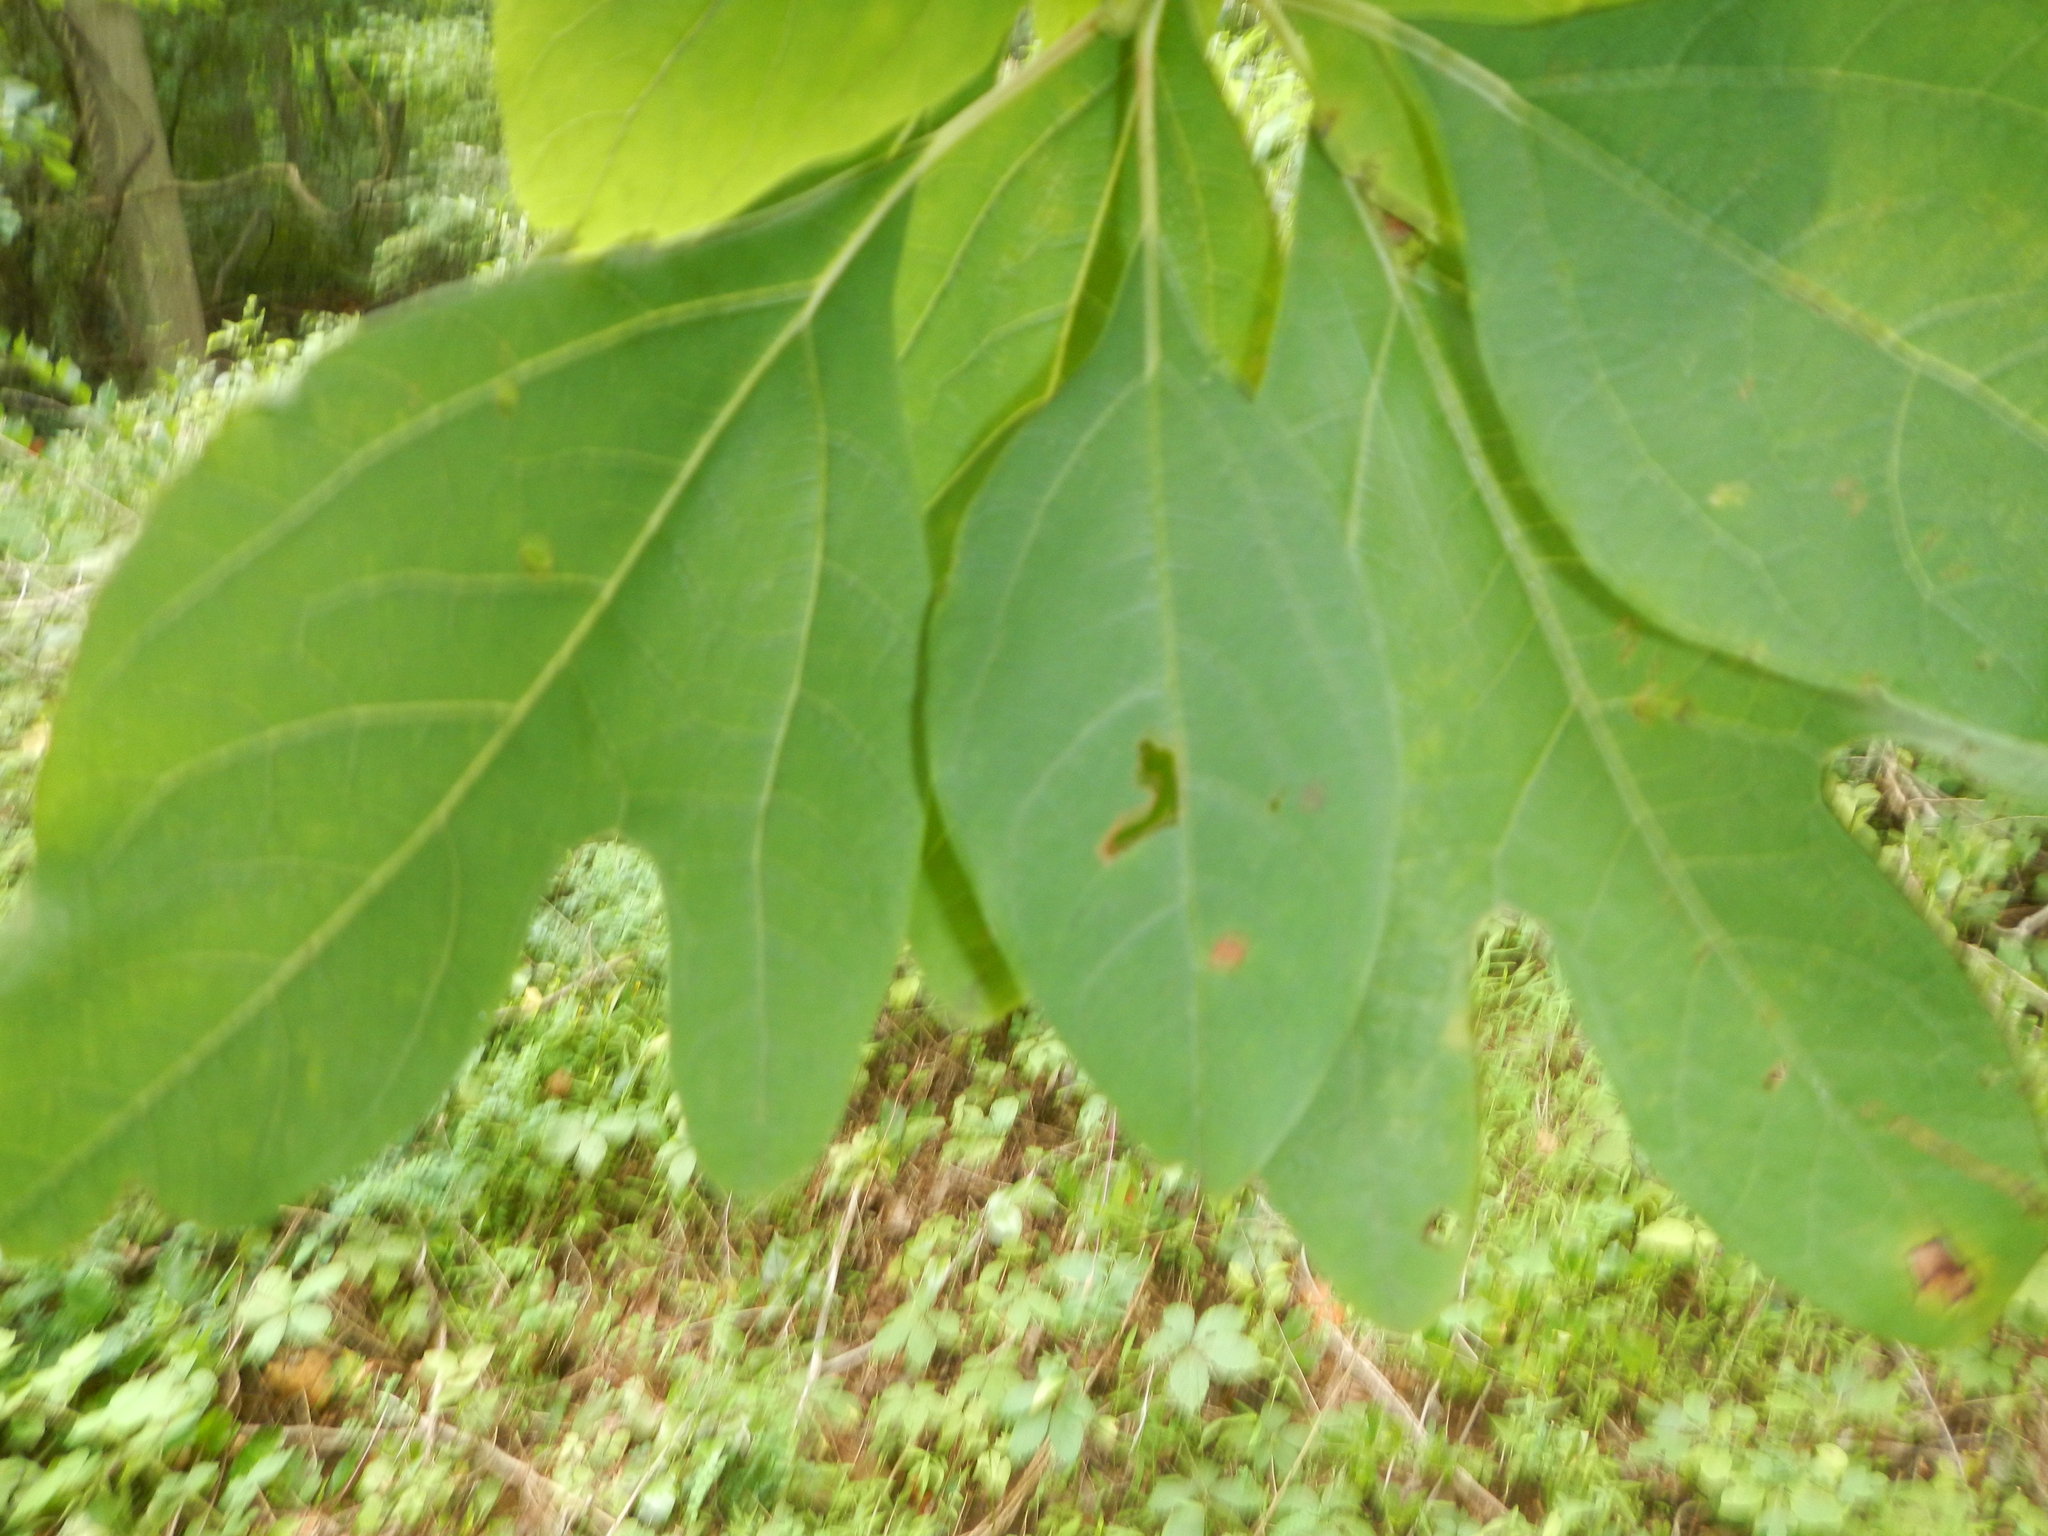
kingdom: Plantae
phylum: Tracheophyta
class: Magnoliopsida
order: Laurales
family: Lauraceae
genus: Sassafras
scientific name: Sassafras albidum
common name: Sassafras
